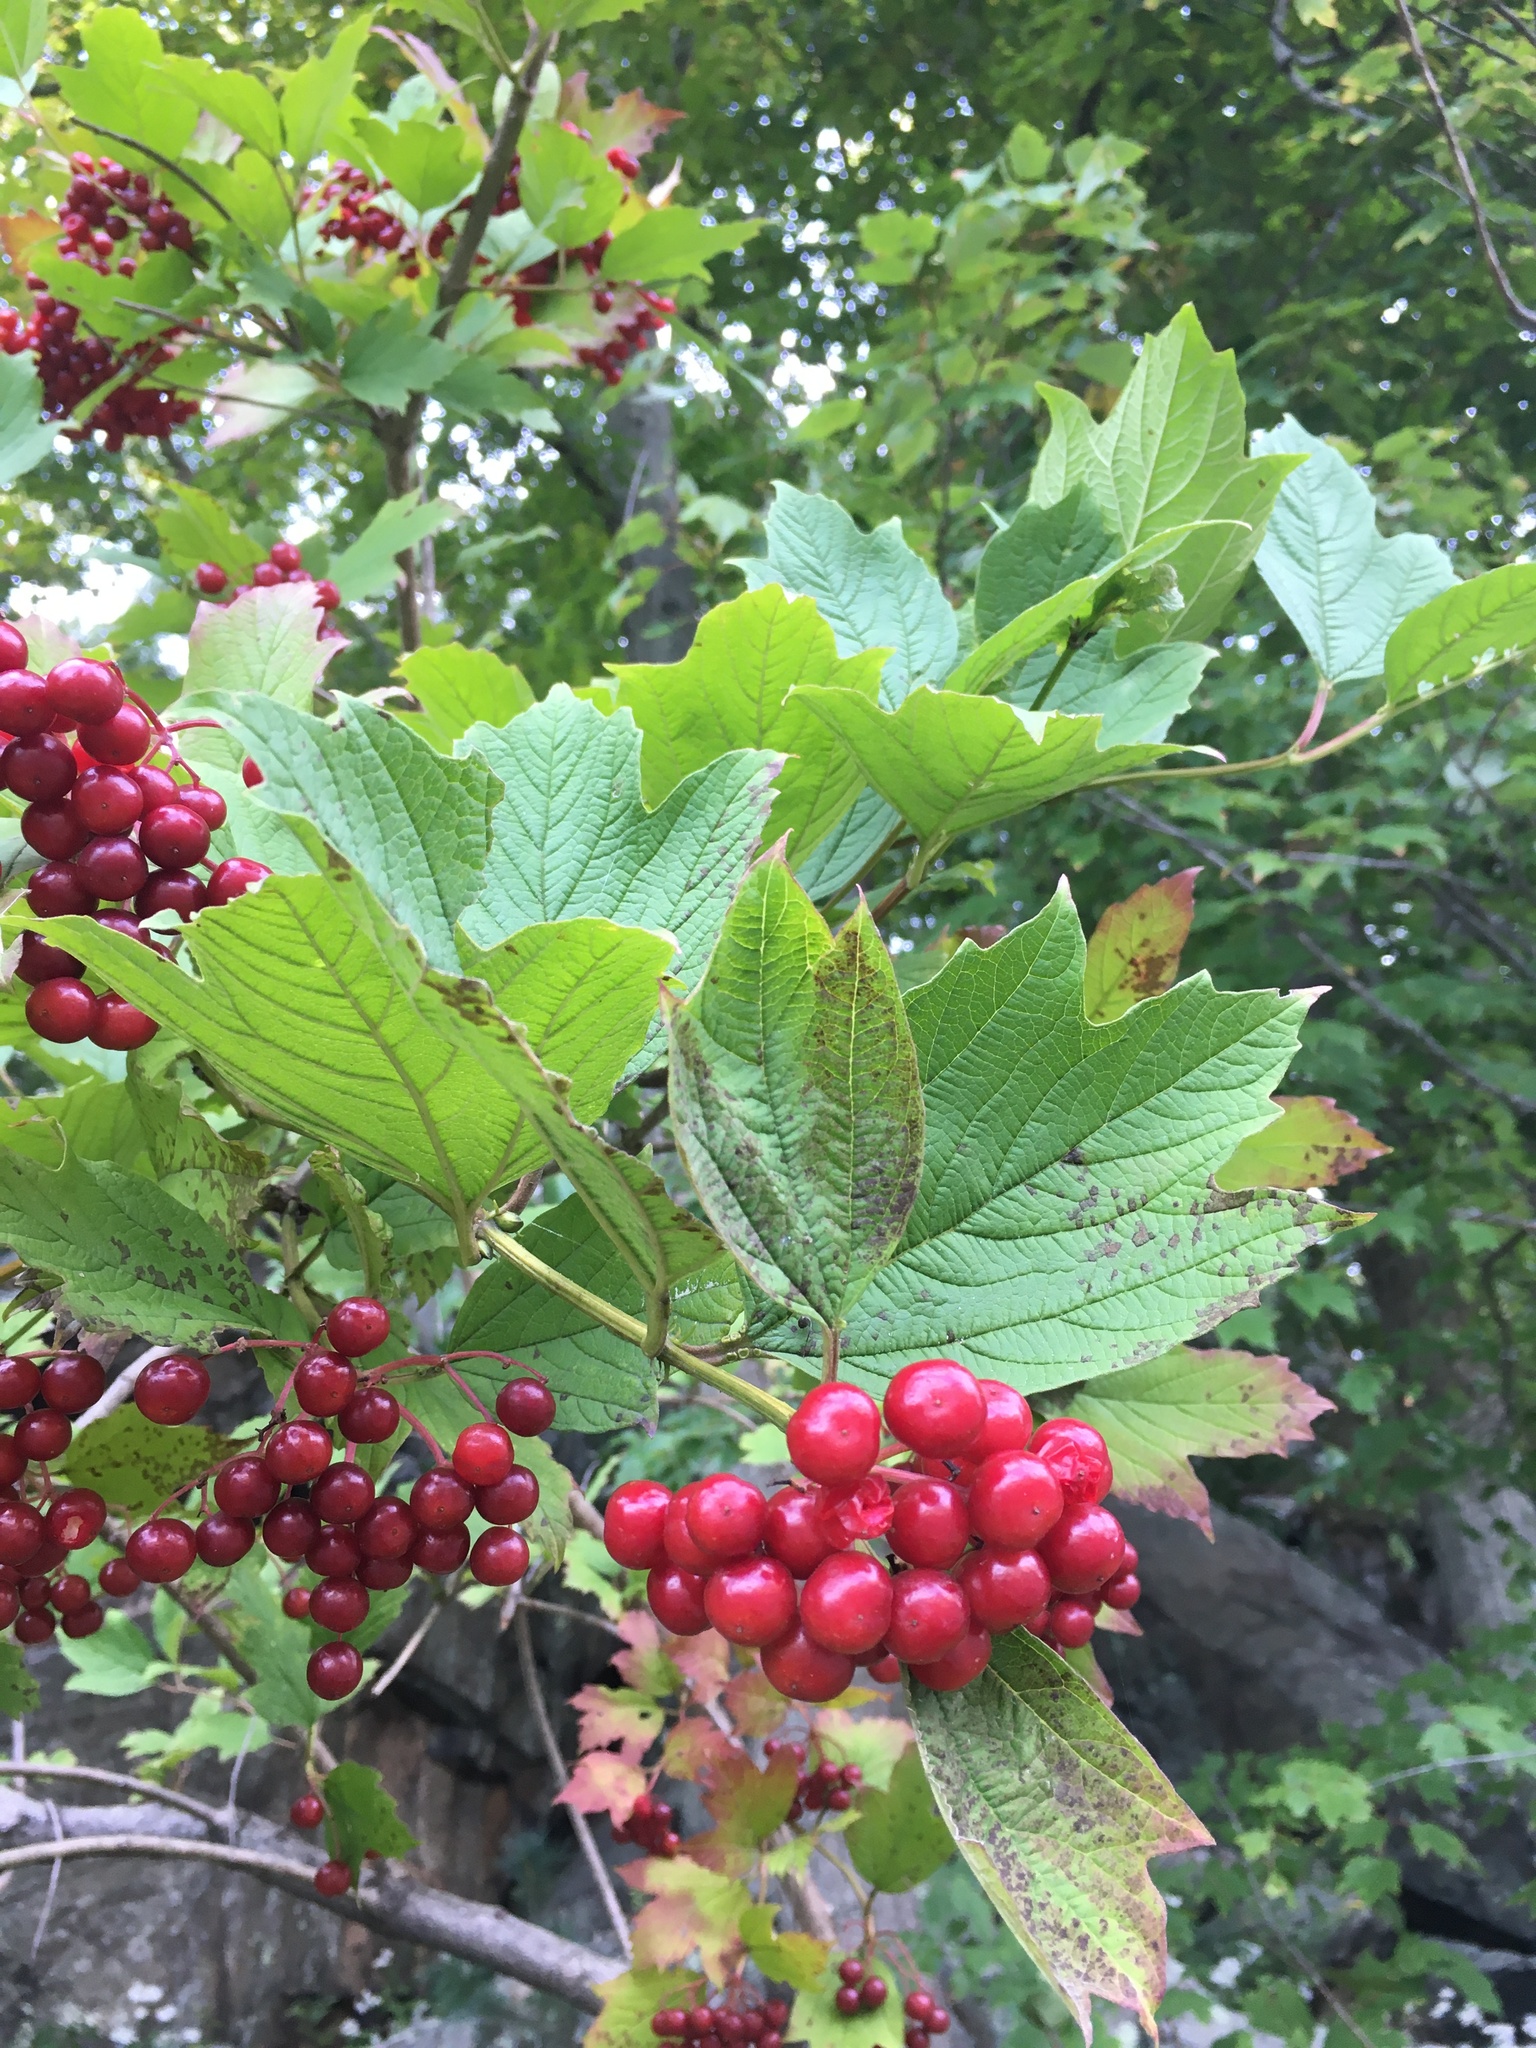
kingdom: Plantae
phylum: Tracheophyta
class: Magnoliopsida
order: Dipsacales
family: Viburnaceae
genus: Viburnum
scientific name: Viburnum opulus
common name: Guelder-rose
